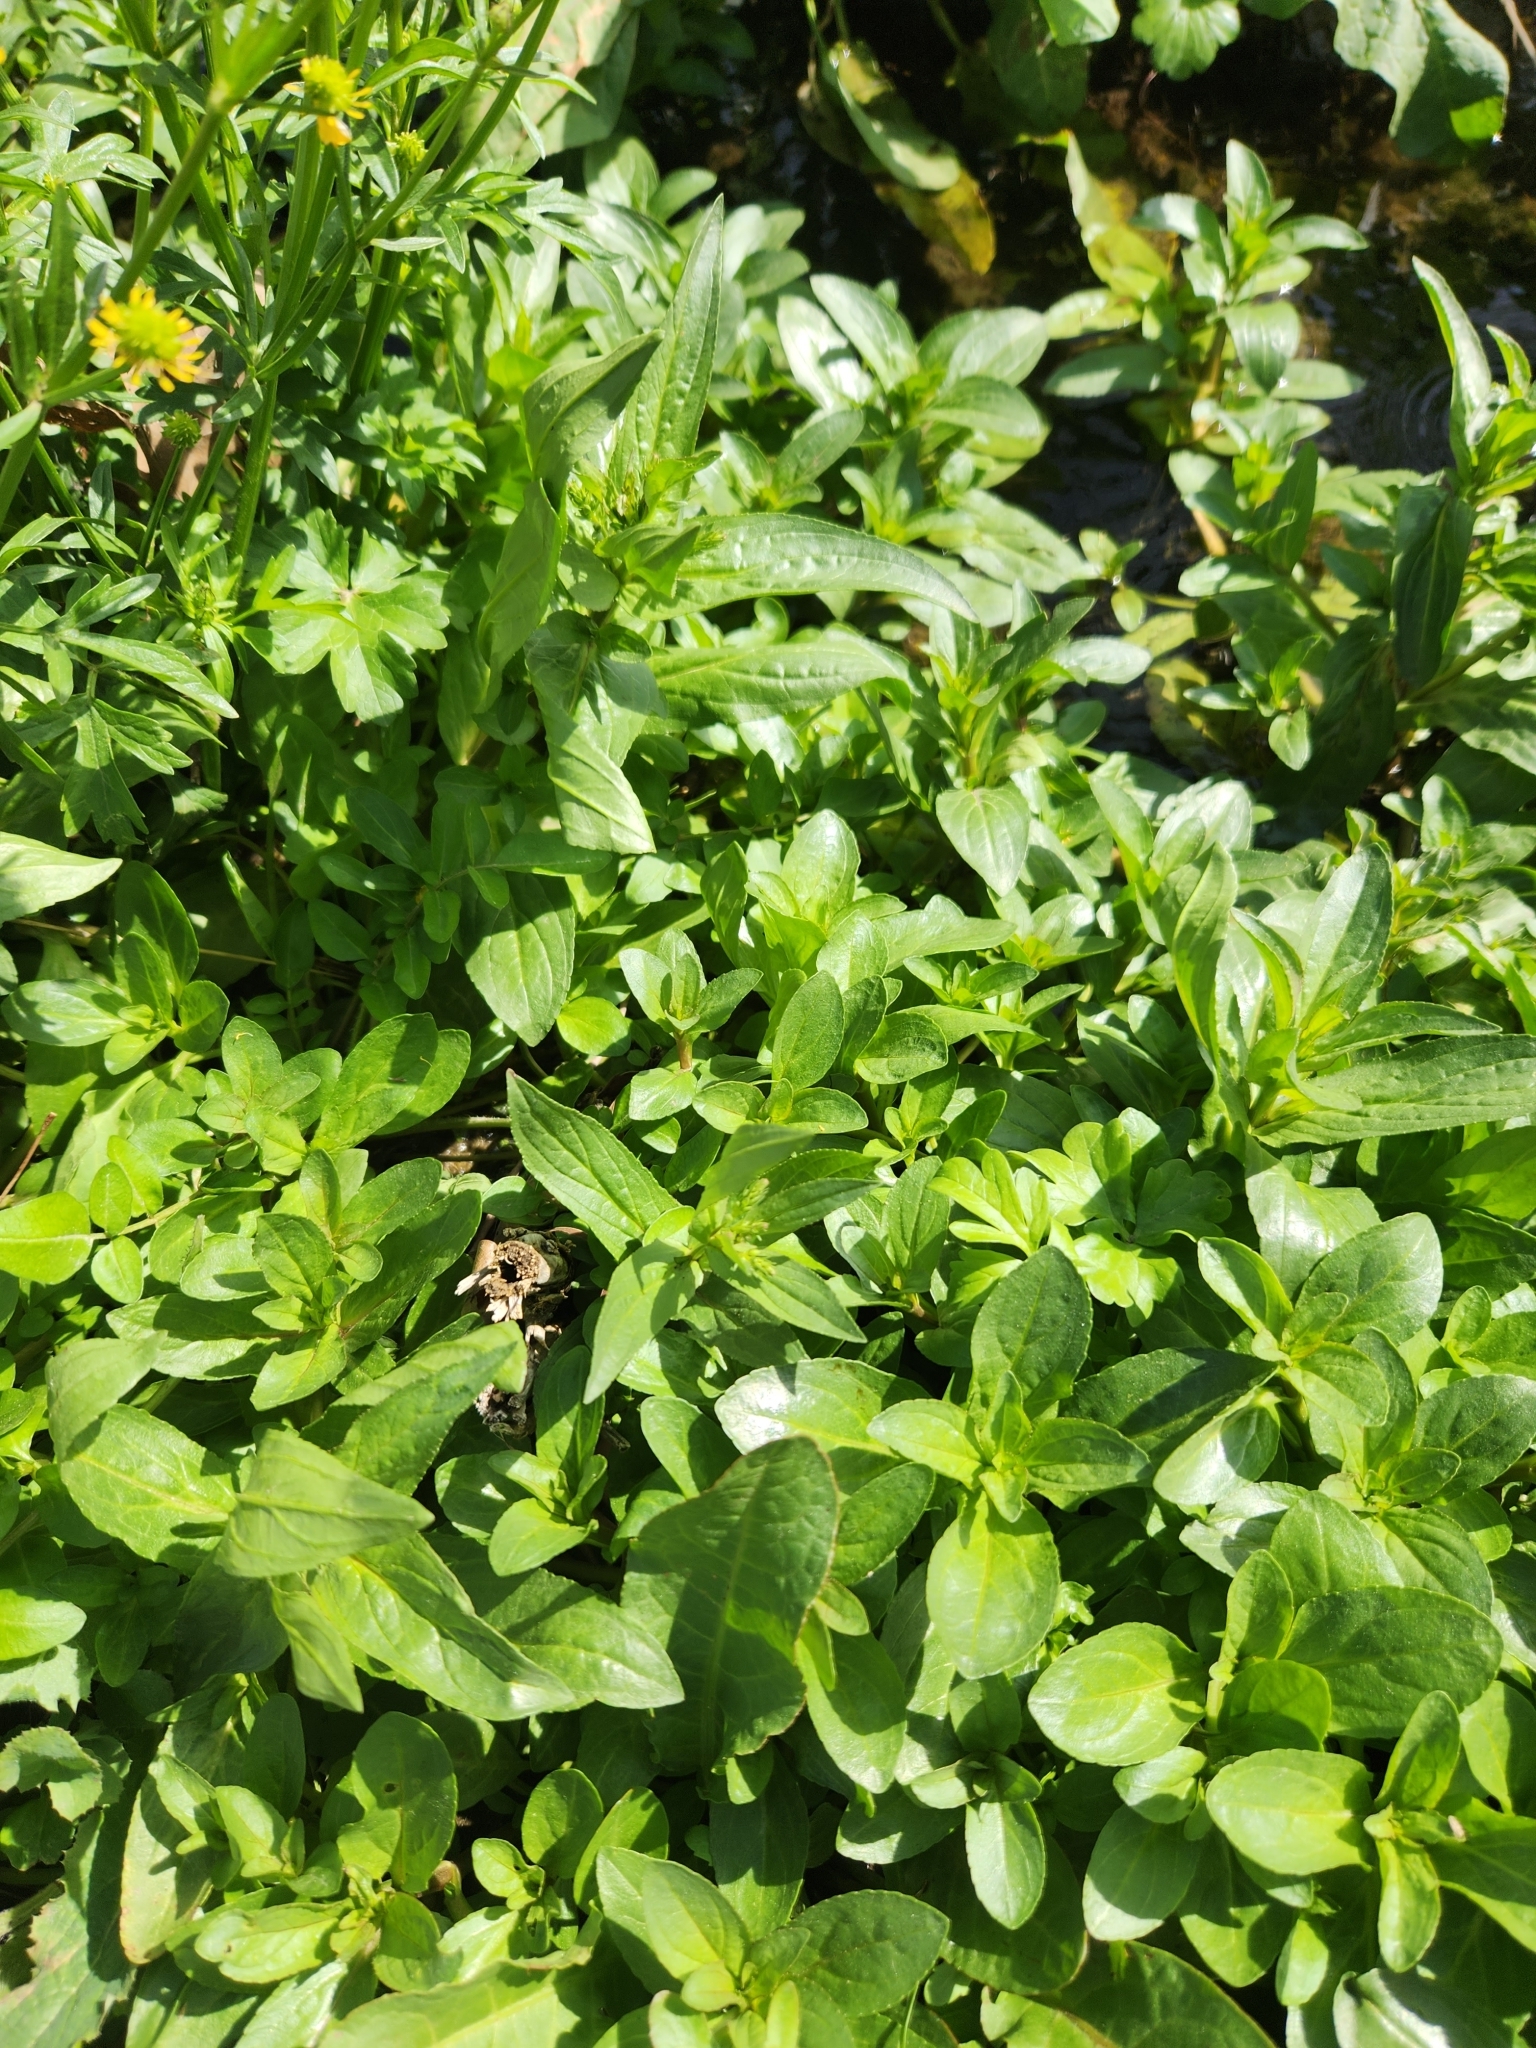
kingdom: Plantae
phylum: Tracheophyta
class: Magnoliopsida
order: Lamiales
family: Plantaginaceae
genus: Veronica
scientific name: Veronica anagallis-aquatica
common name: Water speedwell
